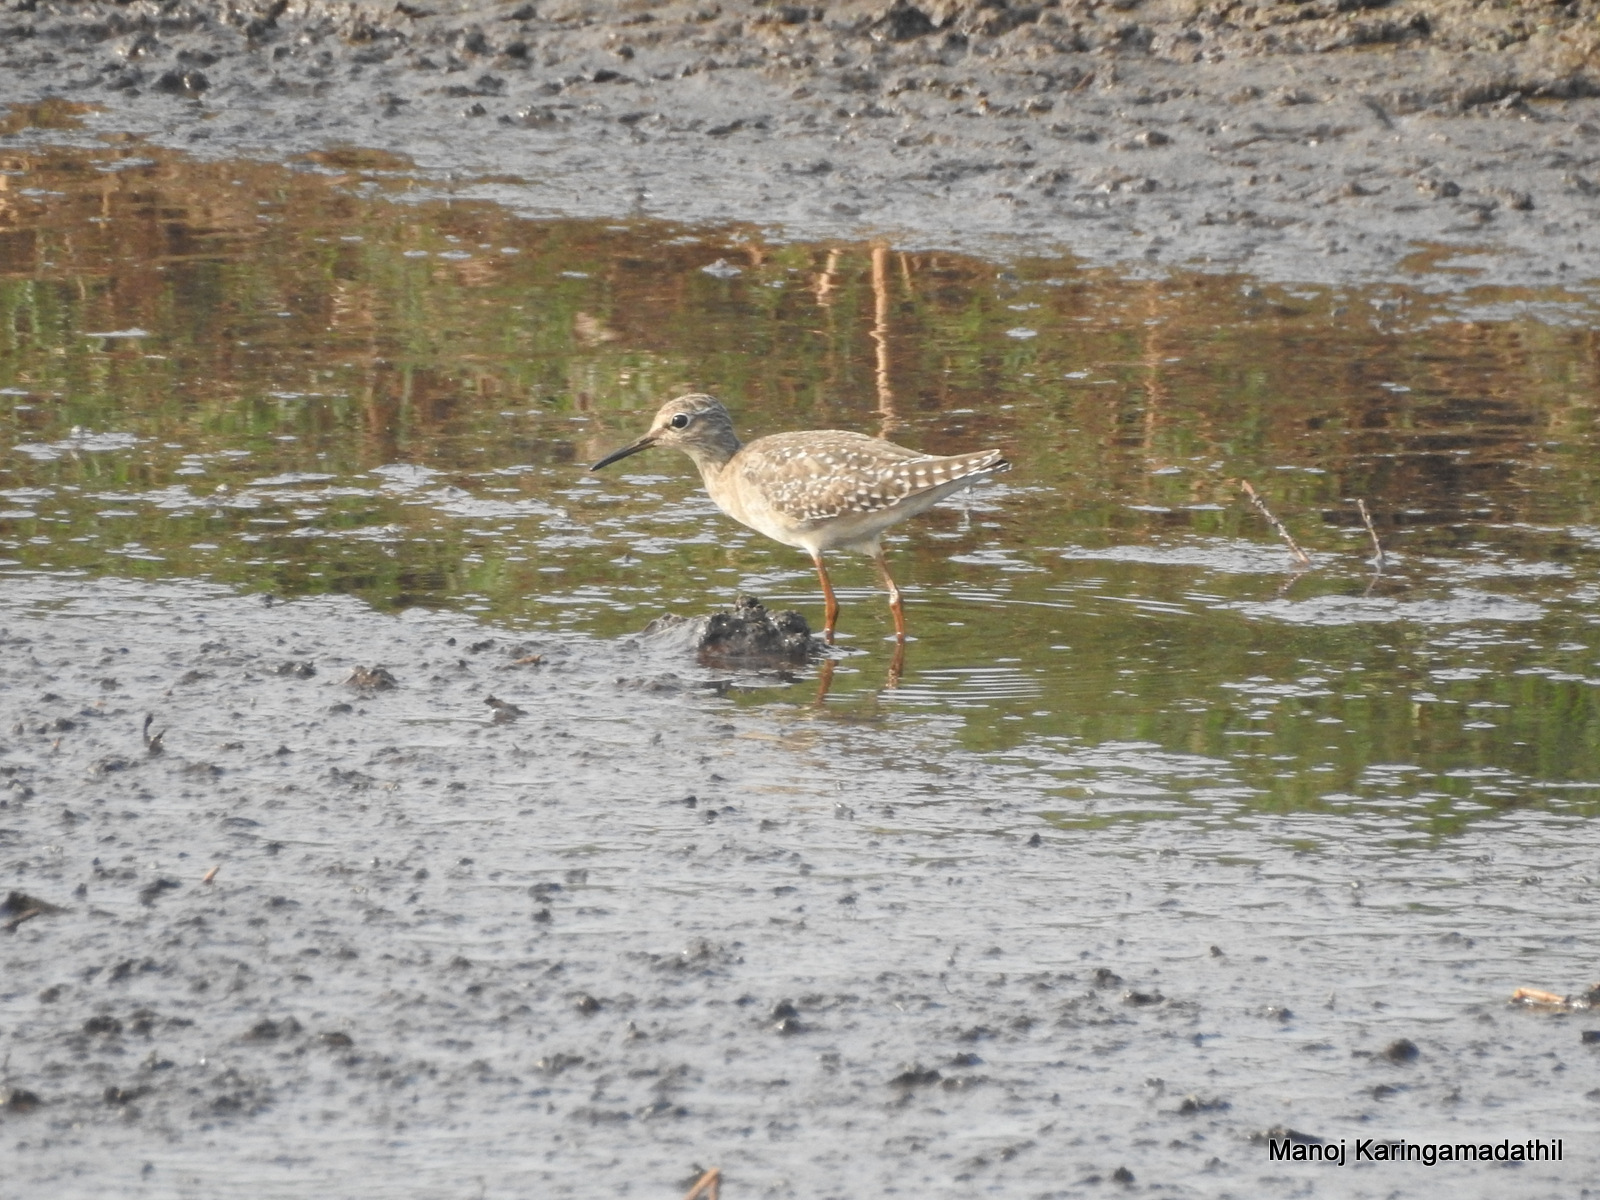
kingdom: Animalia
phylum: Chordata
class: Aves
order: Charadriiformes
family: Scolopacidae
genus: Tringa
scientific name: Tringa glareola
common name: Wood sandpiper
